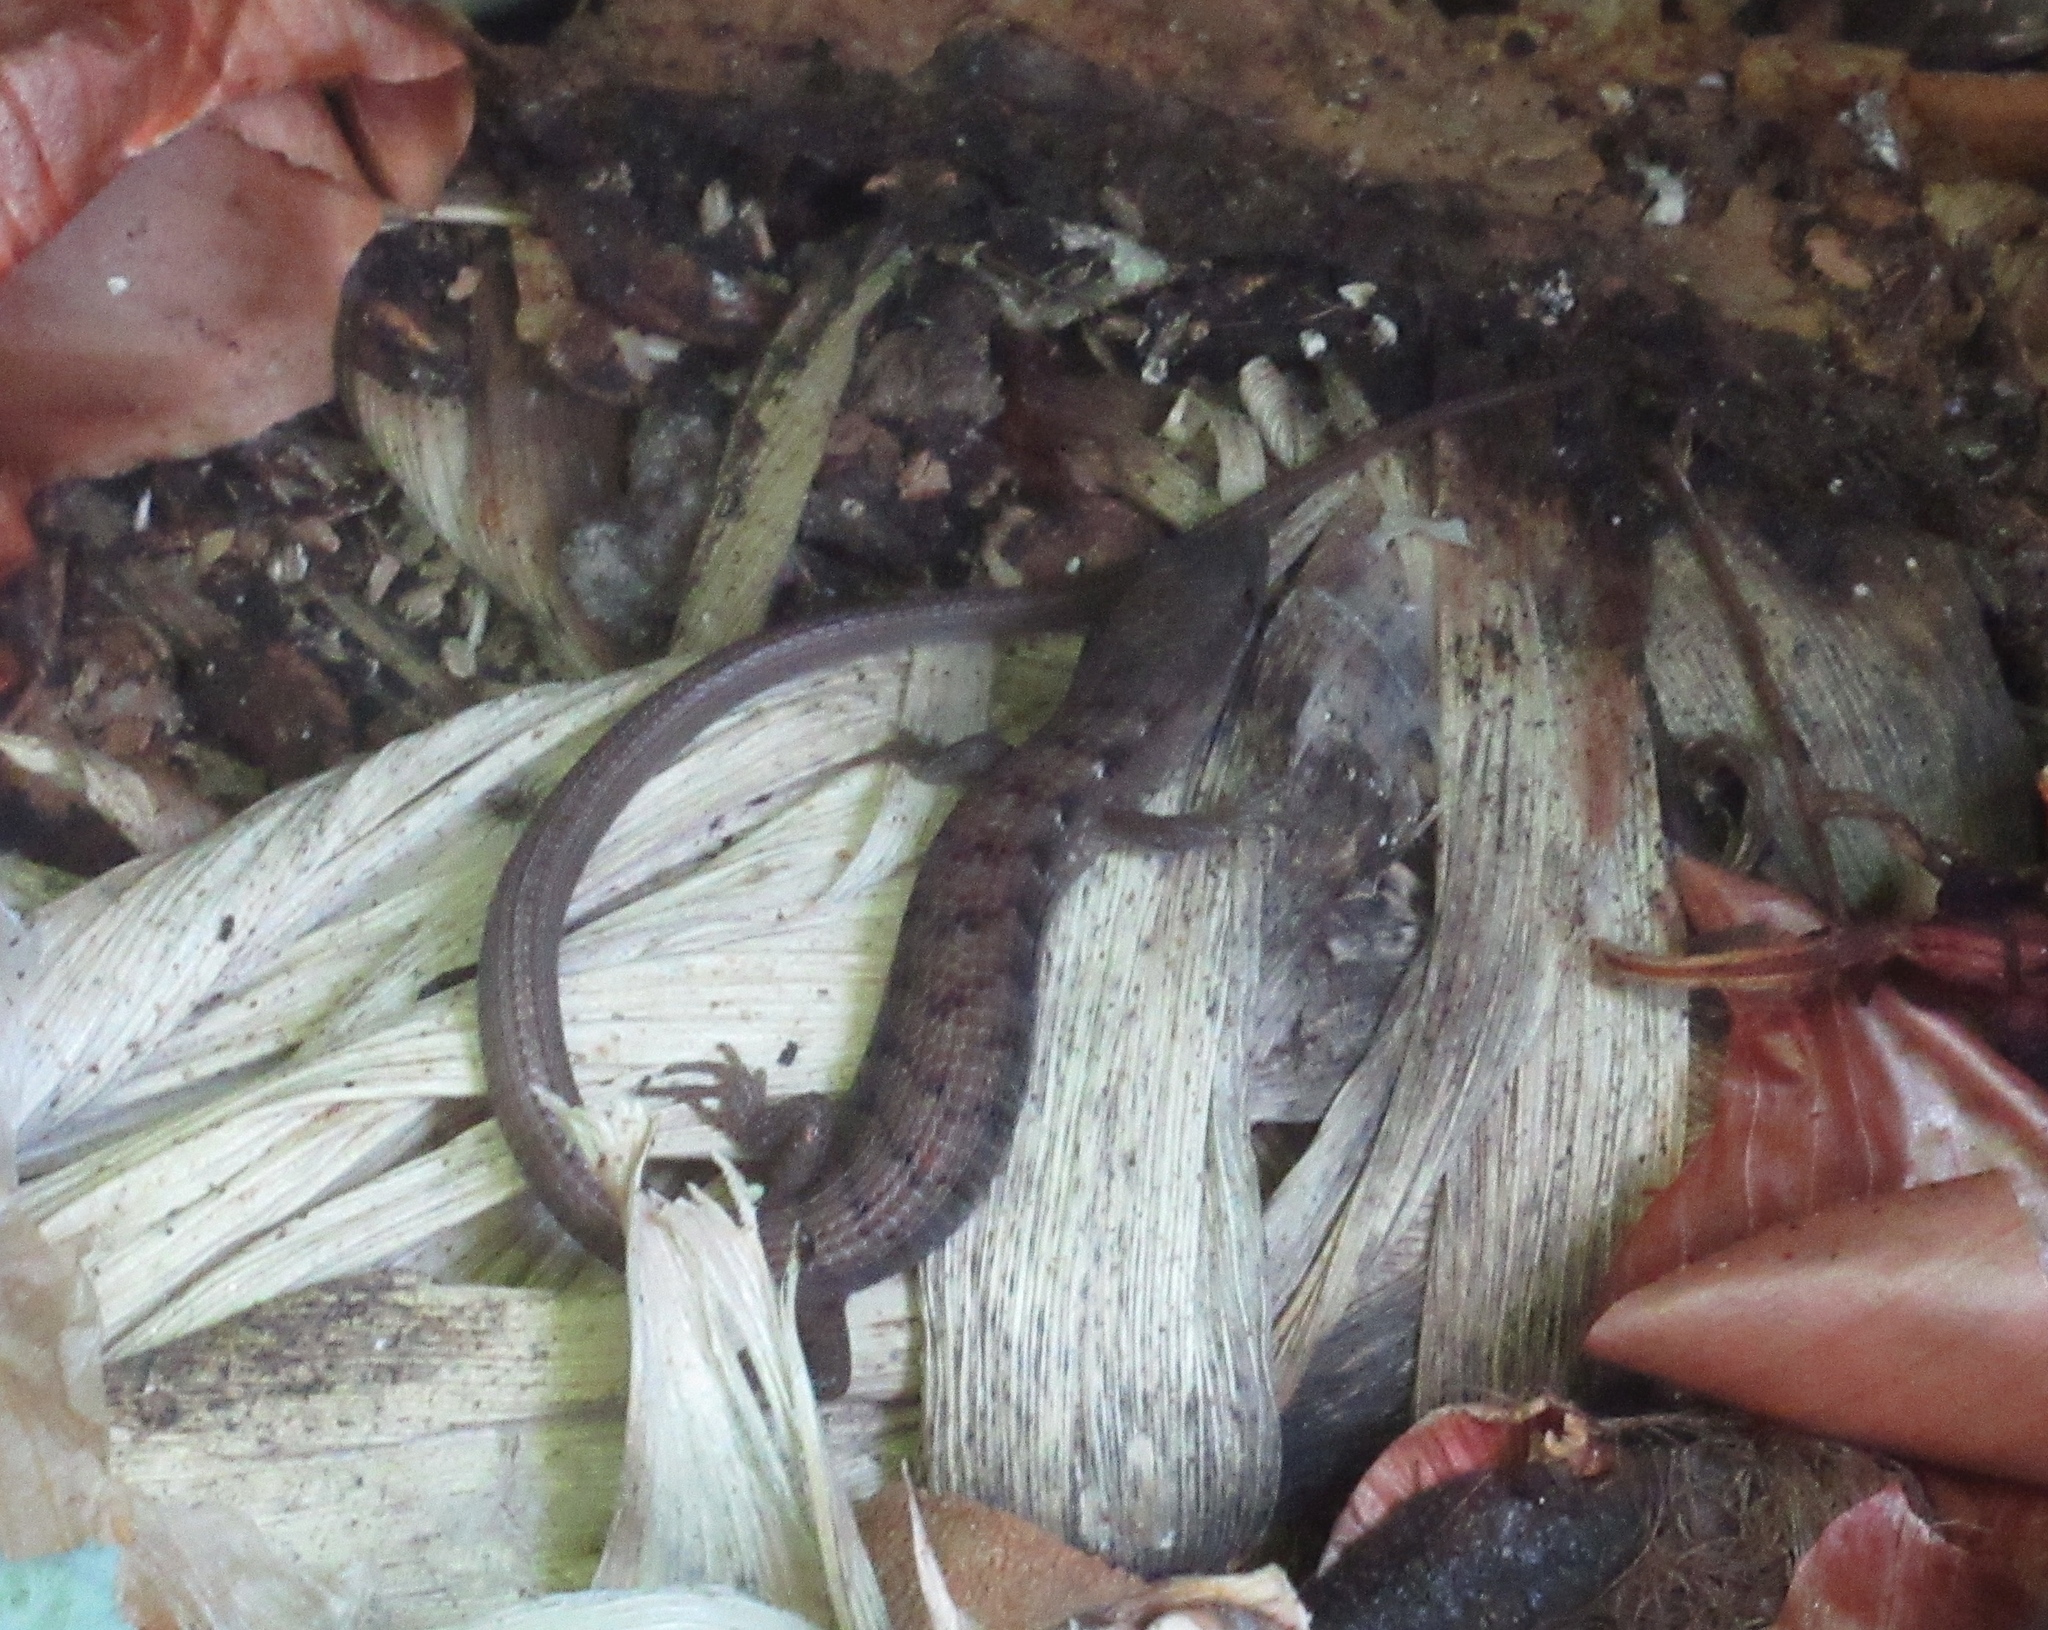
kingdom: Animalia
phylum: Chordata
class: Squamata
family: Anguidae
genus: Elgaria
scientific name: Elgaria multicarinata
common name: Southern alligator lizard
